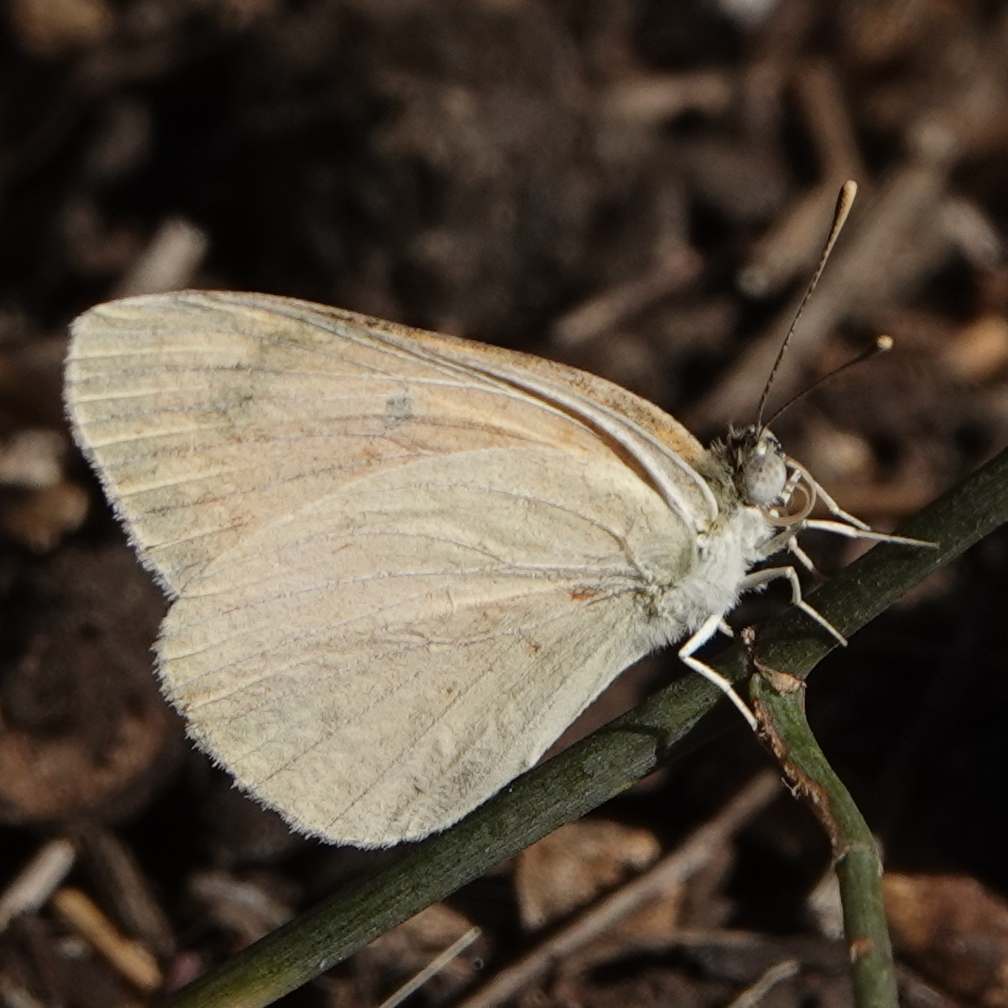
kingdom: Animalia
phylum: Arthropoda
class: Insecta
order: Lepidoptera
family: Pieridae
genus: Colotis
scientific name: Colotis fausta
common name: Large salmon arab
